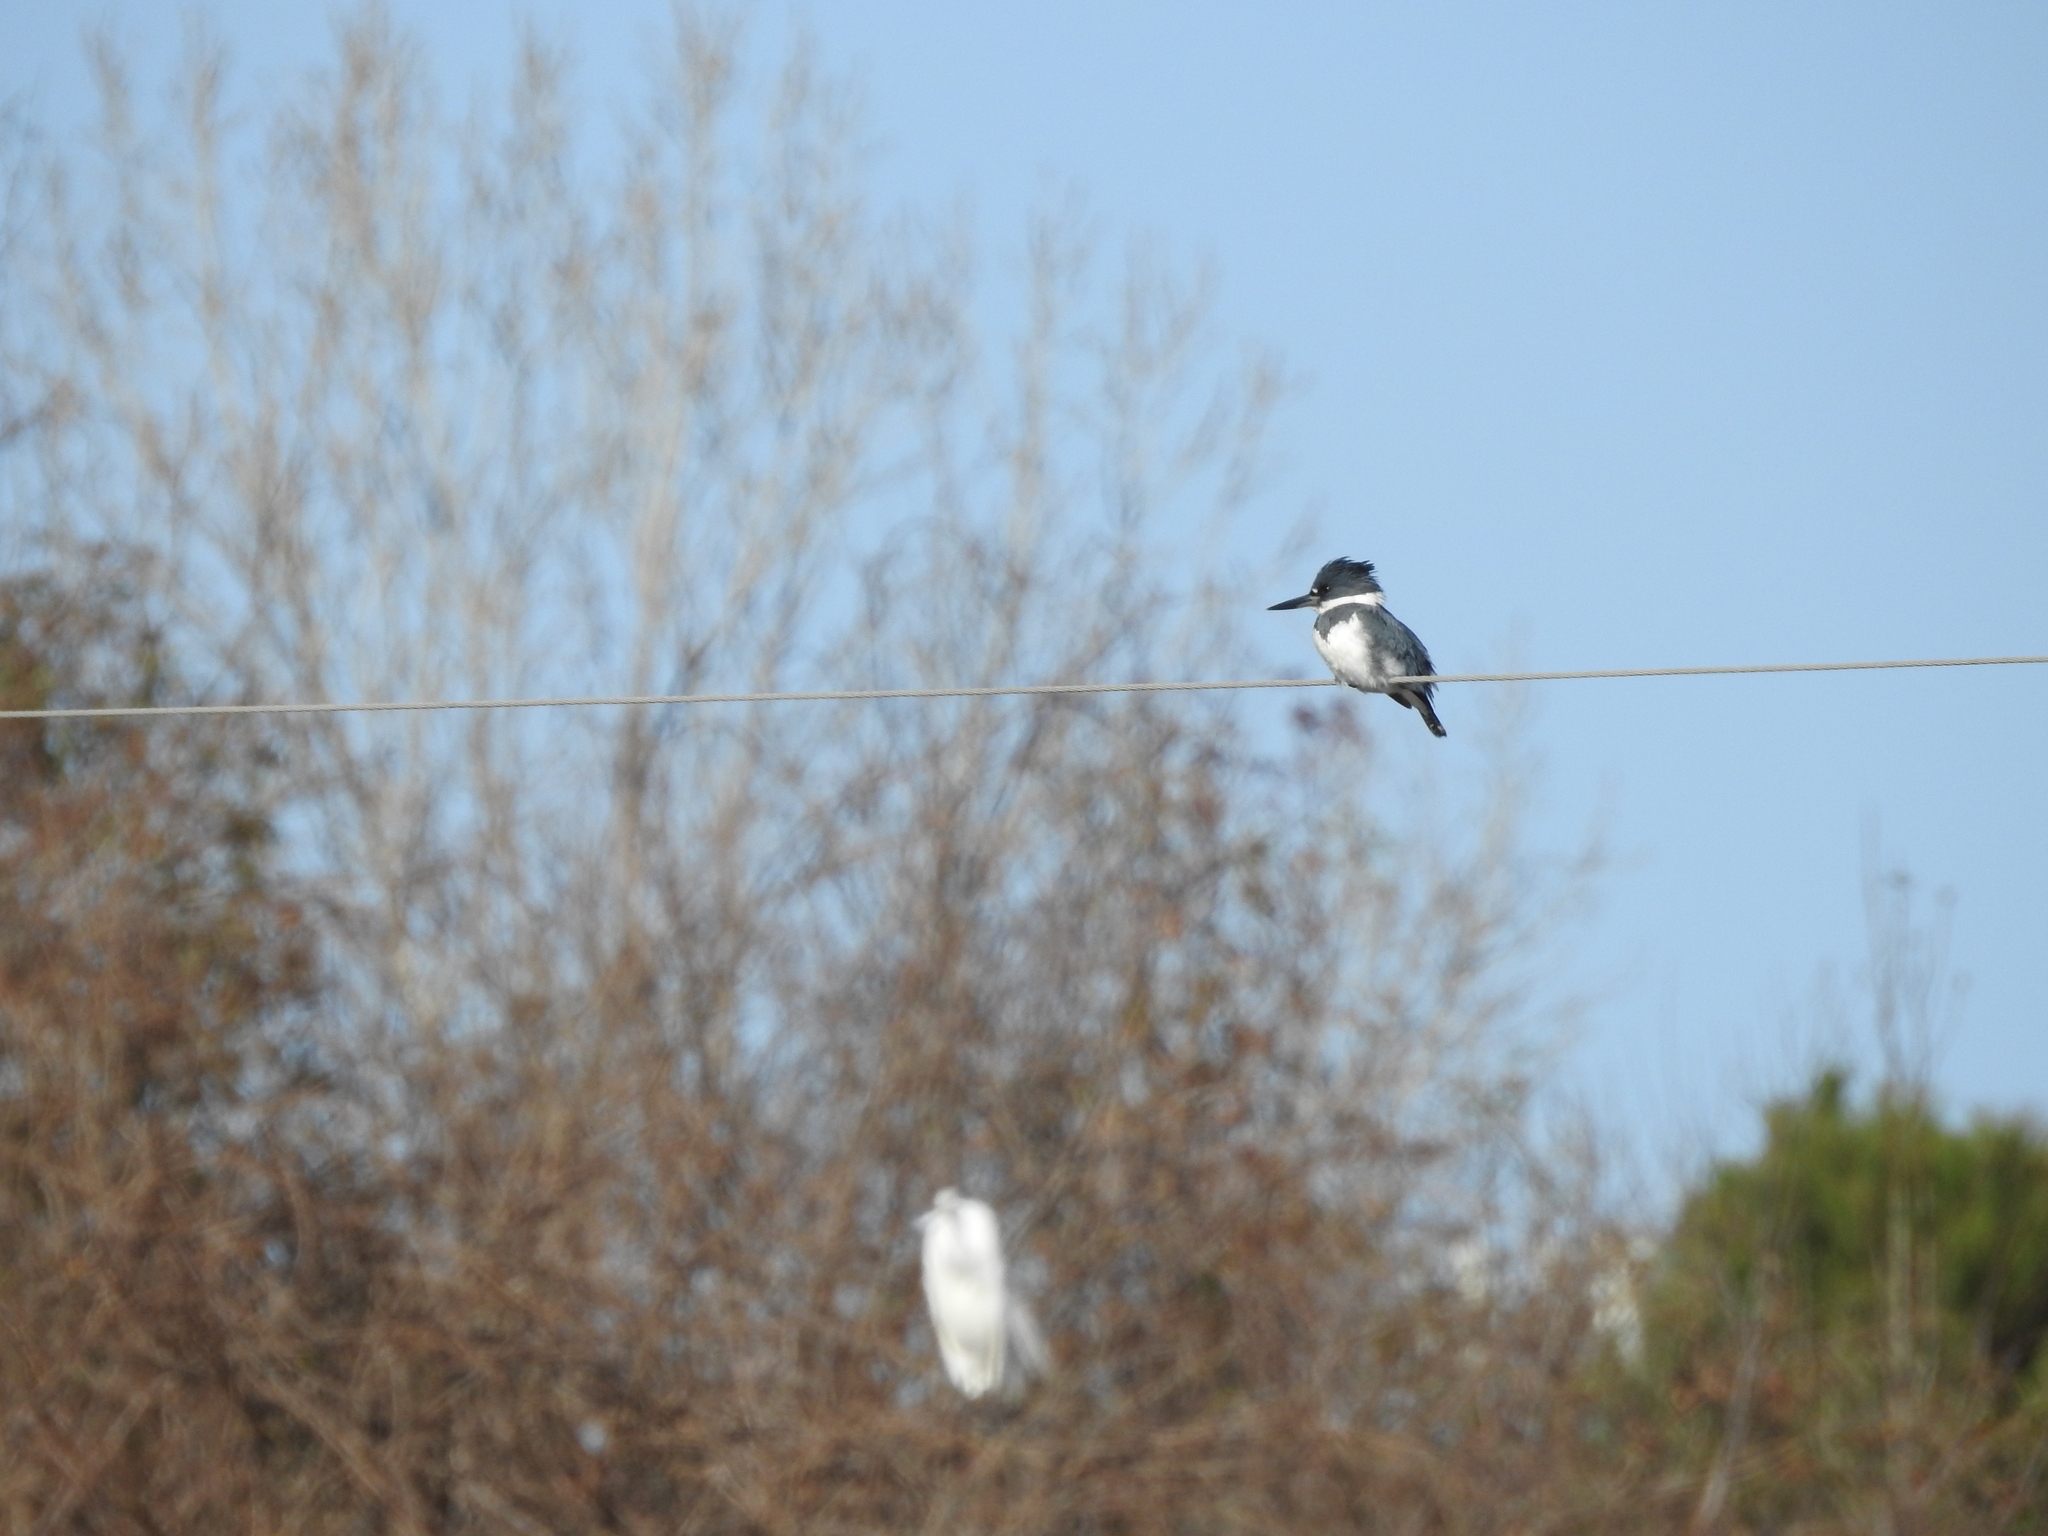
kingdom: Animalia
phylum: Chordata
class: Aves
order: Coraciiformes
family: Alcedinidae
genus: Megaceryle
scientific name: Megaceryle alcyon
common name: Belted kingfisher
